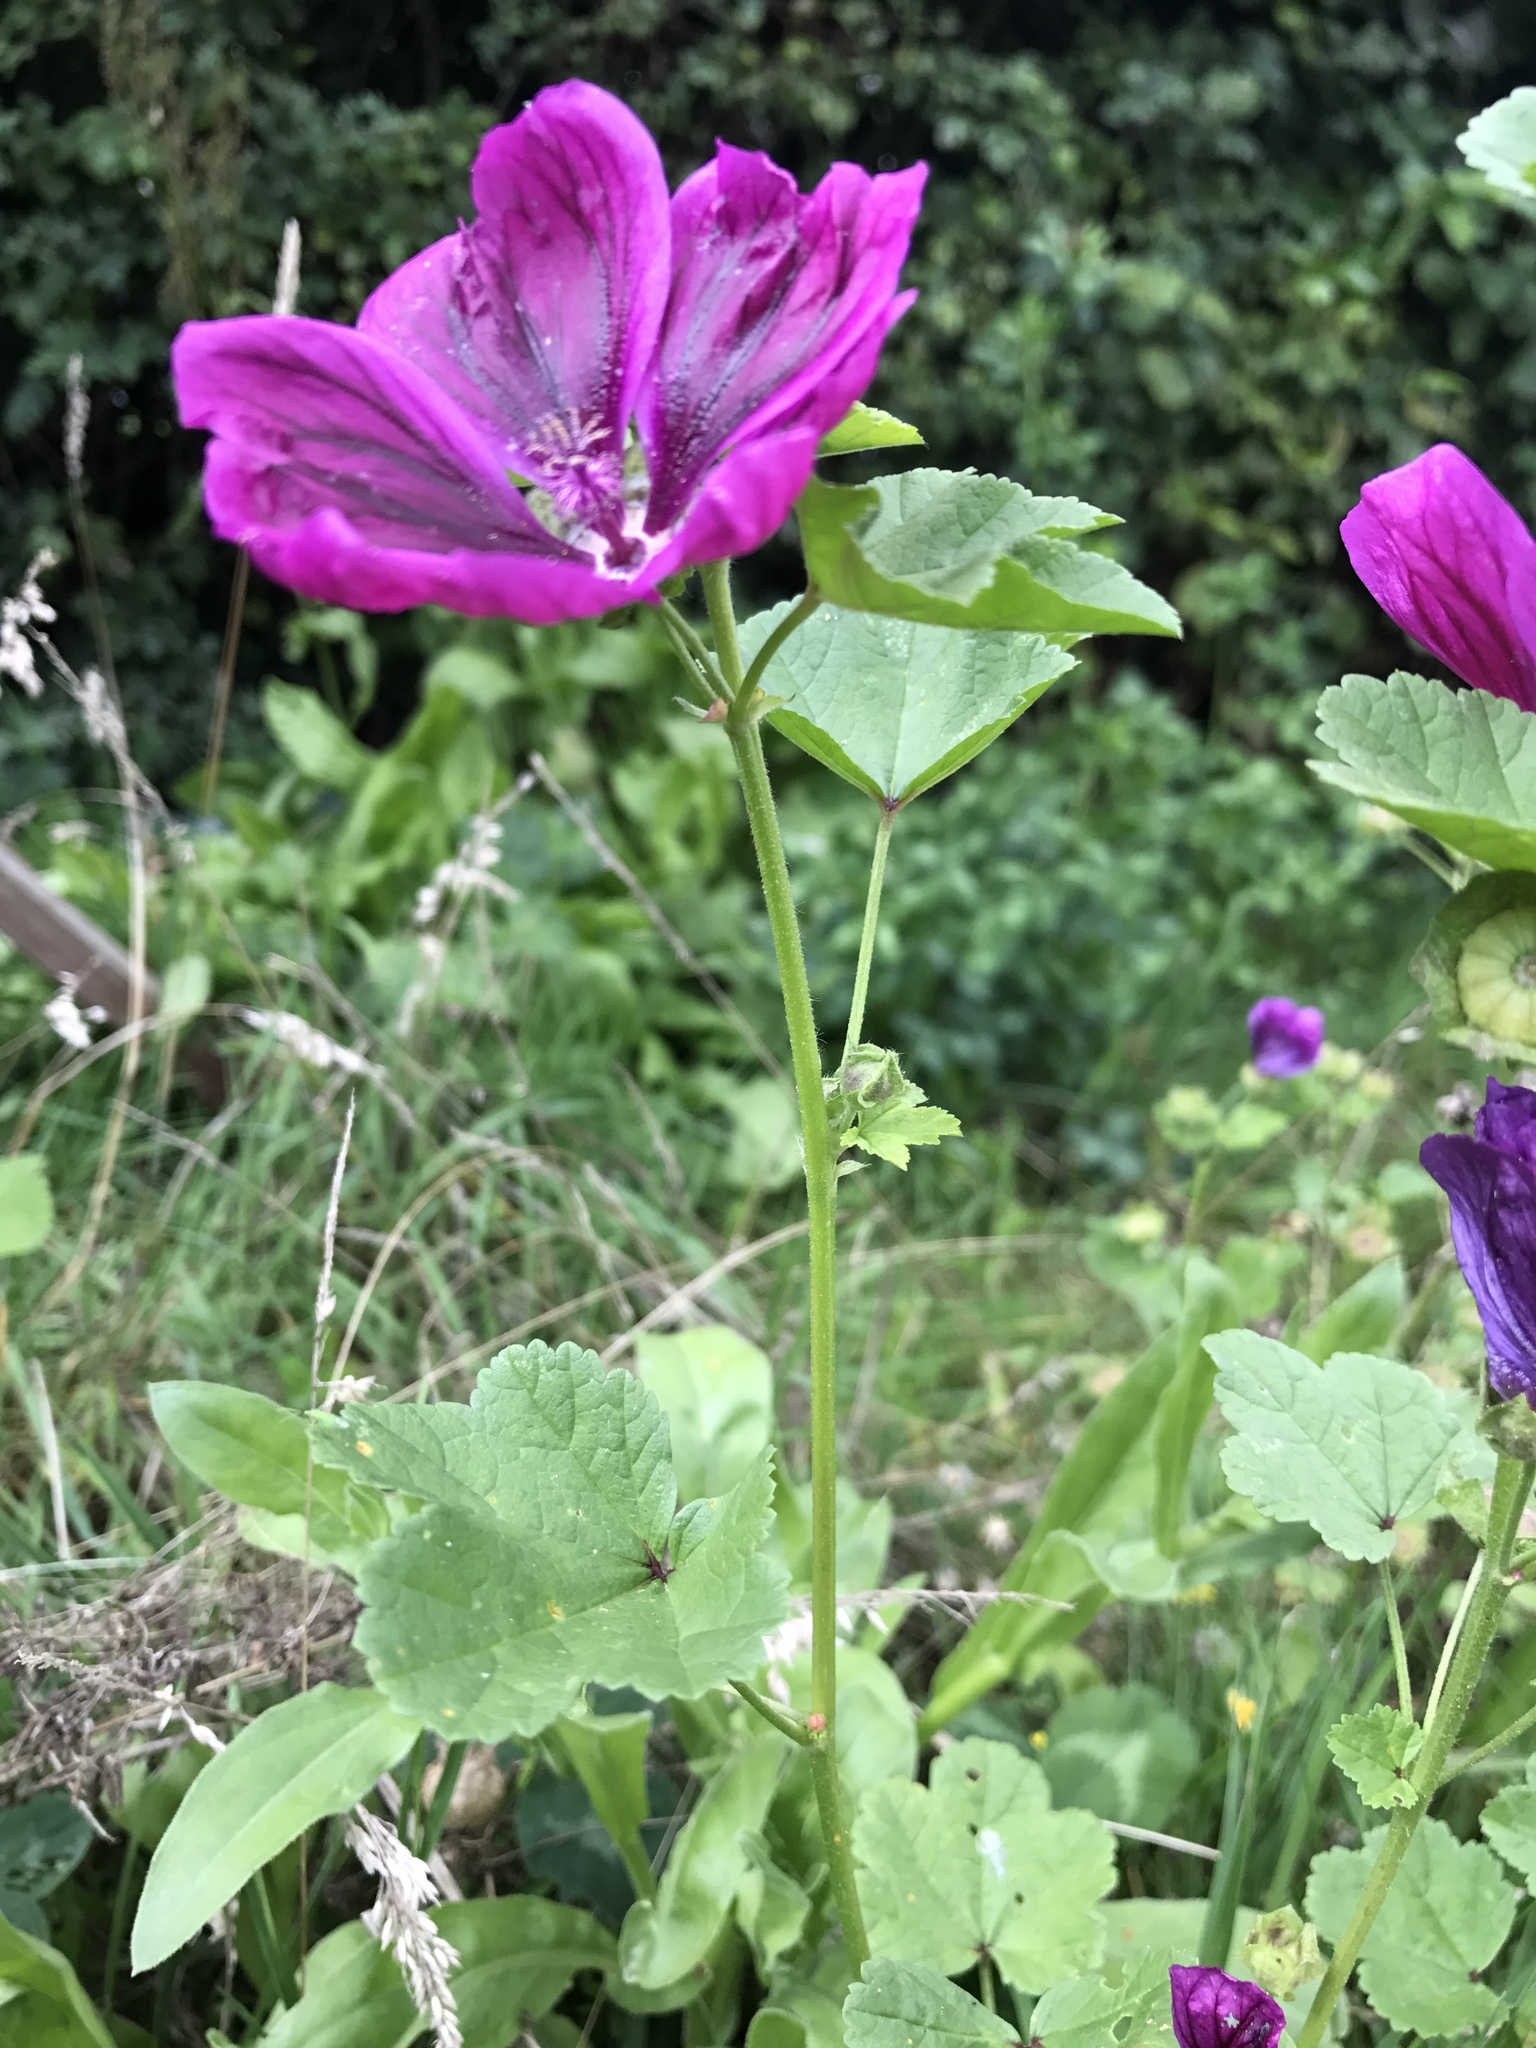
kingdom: Plantae
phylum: Tracheophyta
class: Magnoliopsida
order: Malvales
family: Malvaceae
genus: Malva
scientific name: Malva sylvestris
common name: Common mallow
